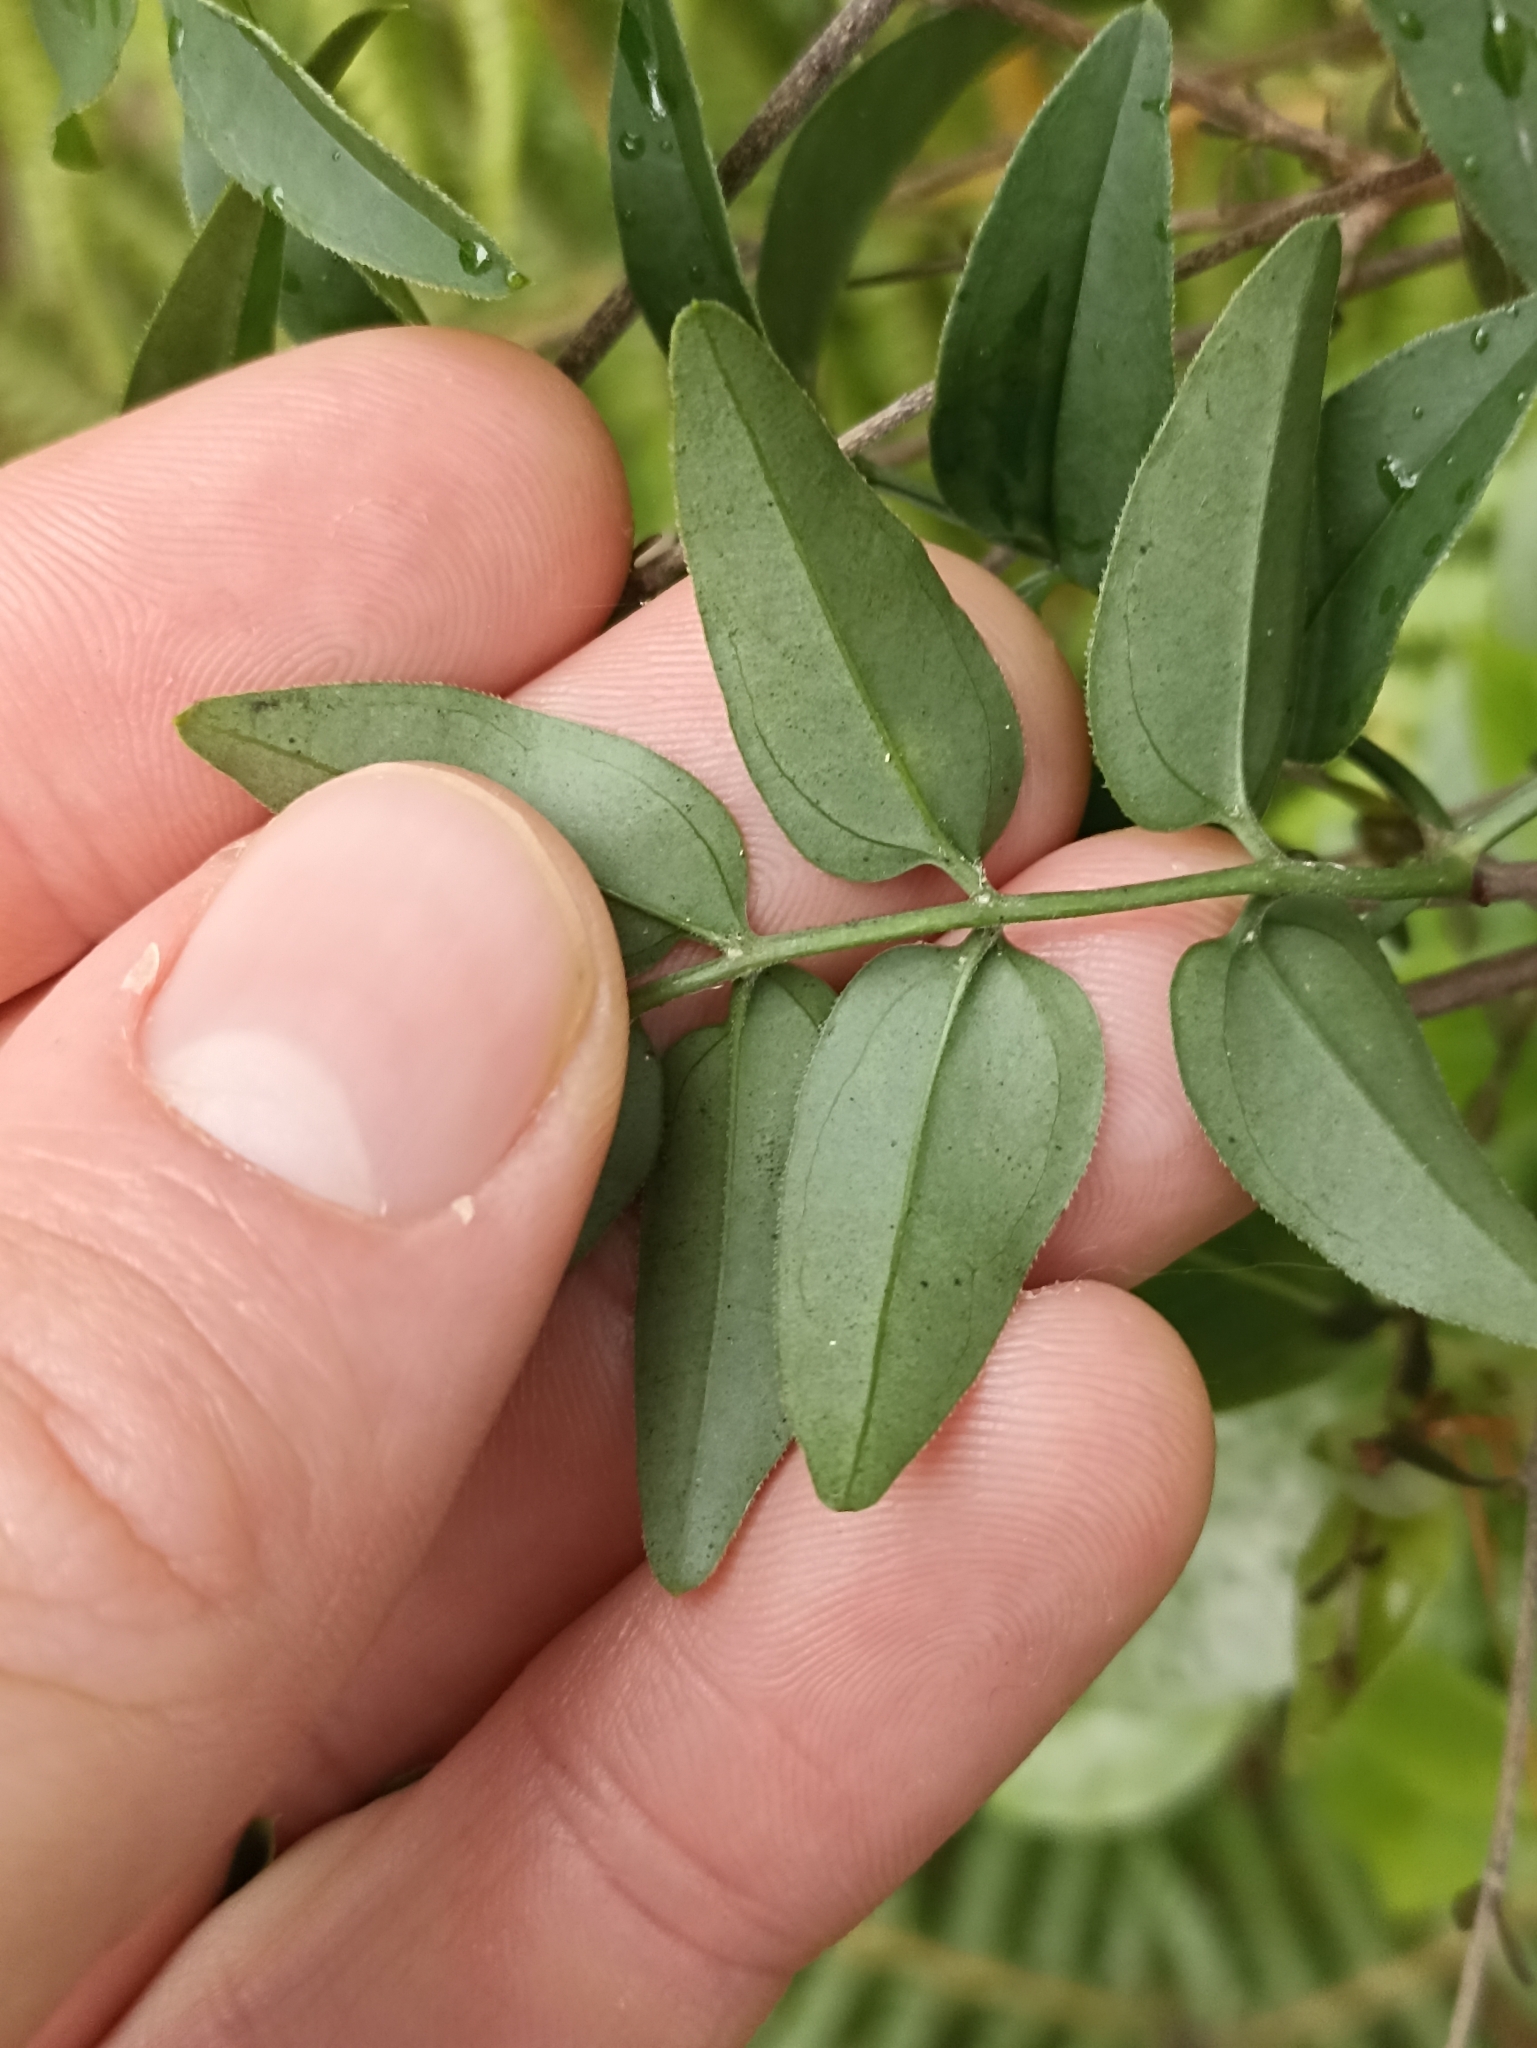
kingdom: Plantae
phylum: Tracheophyta
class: Magnoliopsida
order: Lamiales
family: Oleaceae
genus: Jasminum
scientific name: Jasminum polyanthum
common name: Pink jasmine
